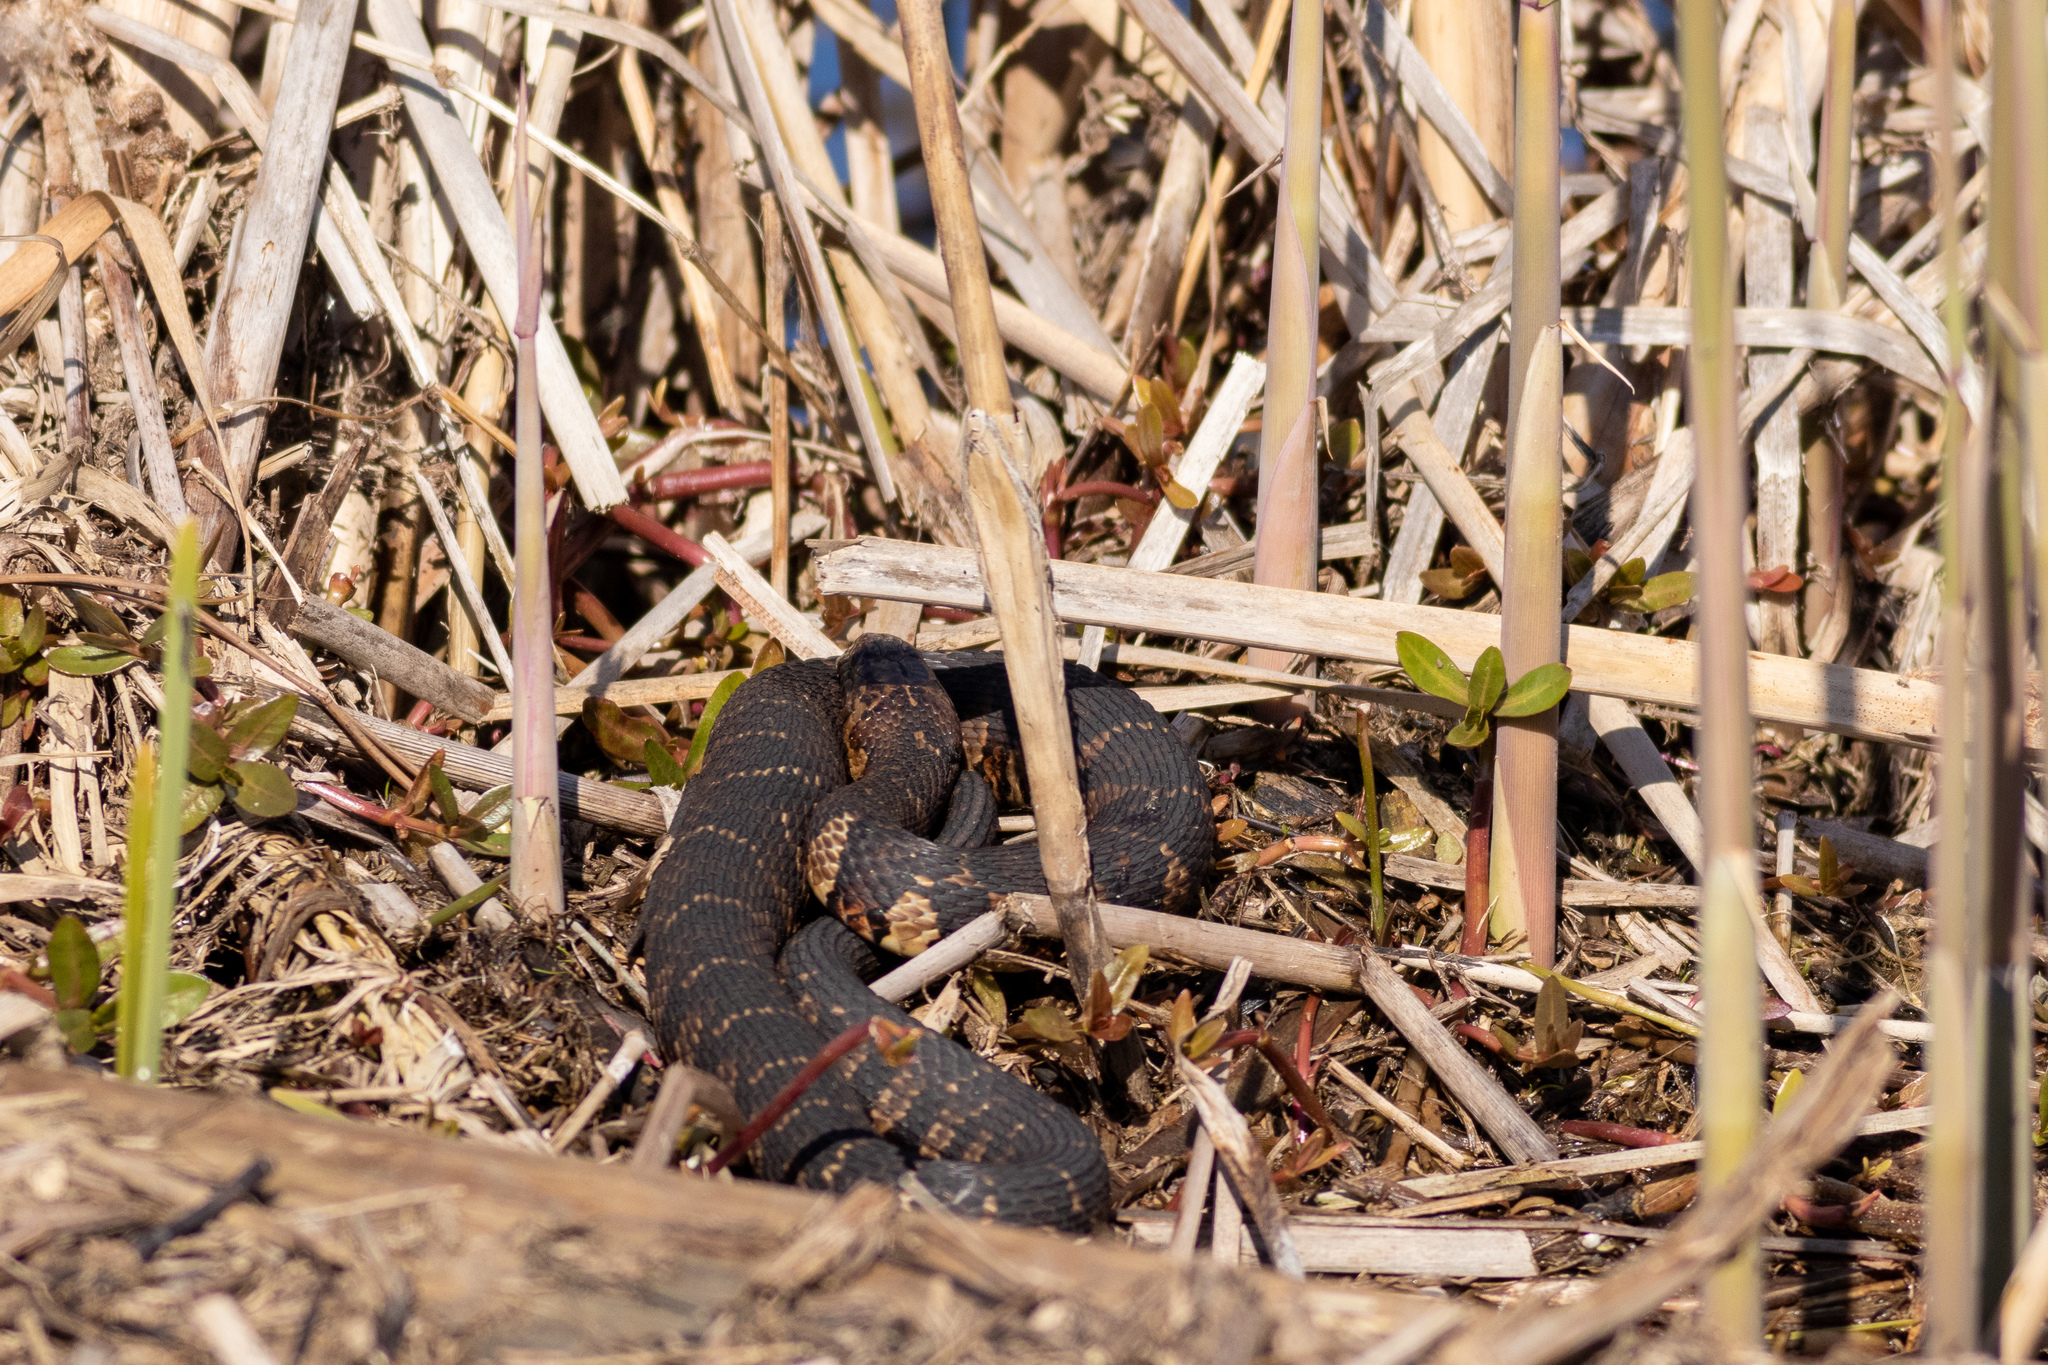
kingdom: Animalia
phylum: Chordata
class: Squamata
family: Colubridae
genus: Nerodia
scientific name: Nerodia sipedon
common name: Northern water snake
